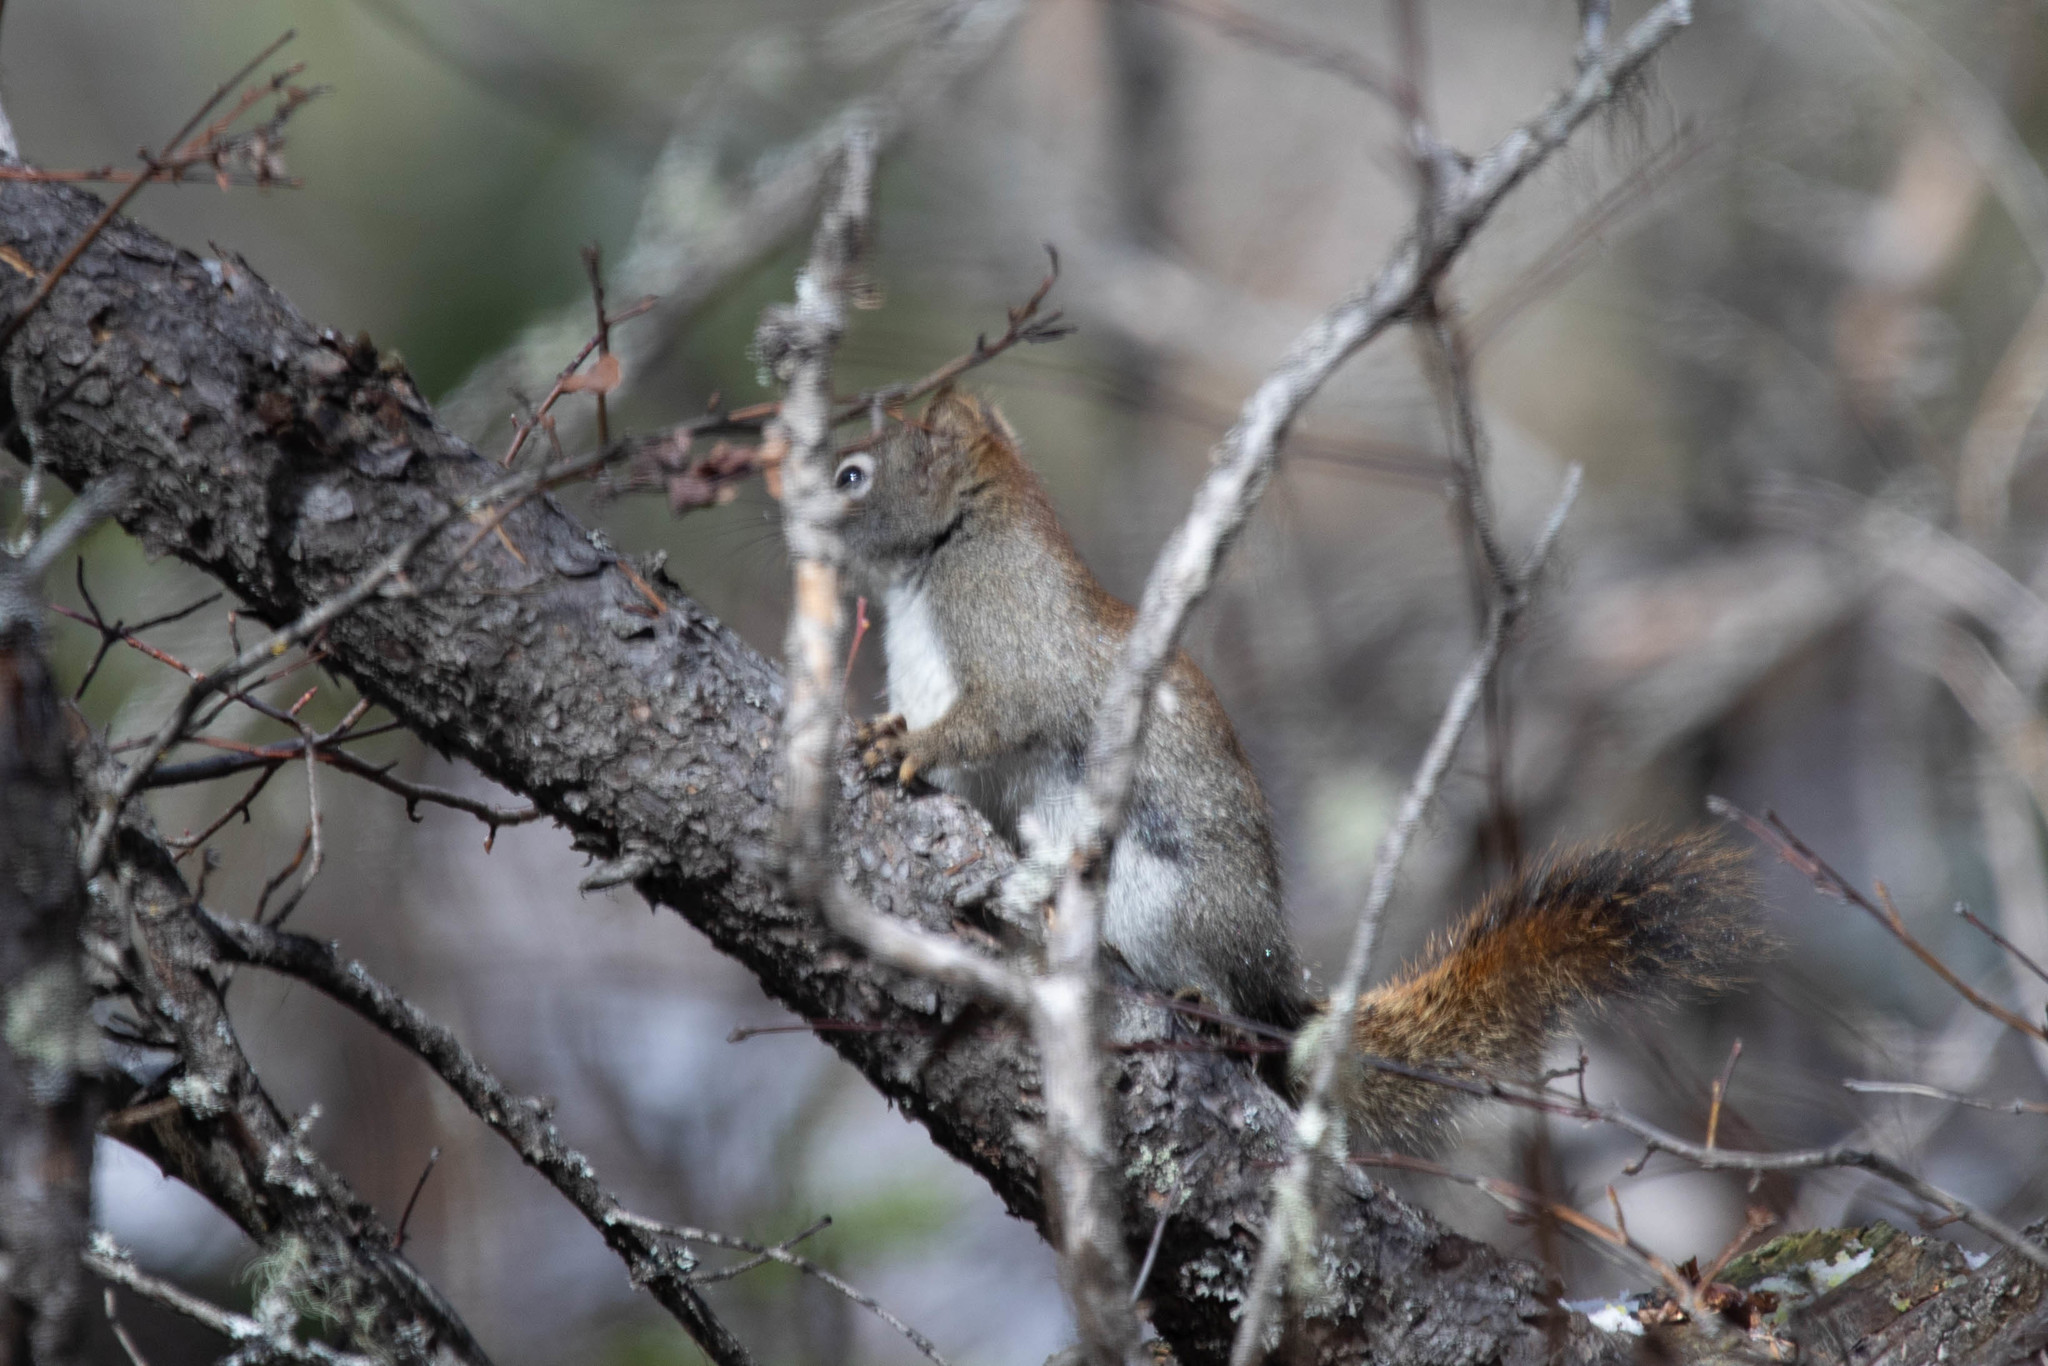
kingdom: Animalia
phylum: Chordata
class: Mammalia
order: Rodentia
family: Sciuridae
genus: Tamiasciurus
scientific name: Tamiasciurus hudsonicus
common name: Red squirrel
